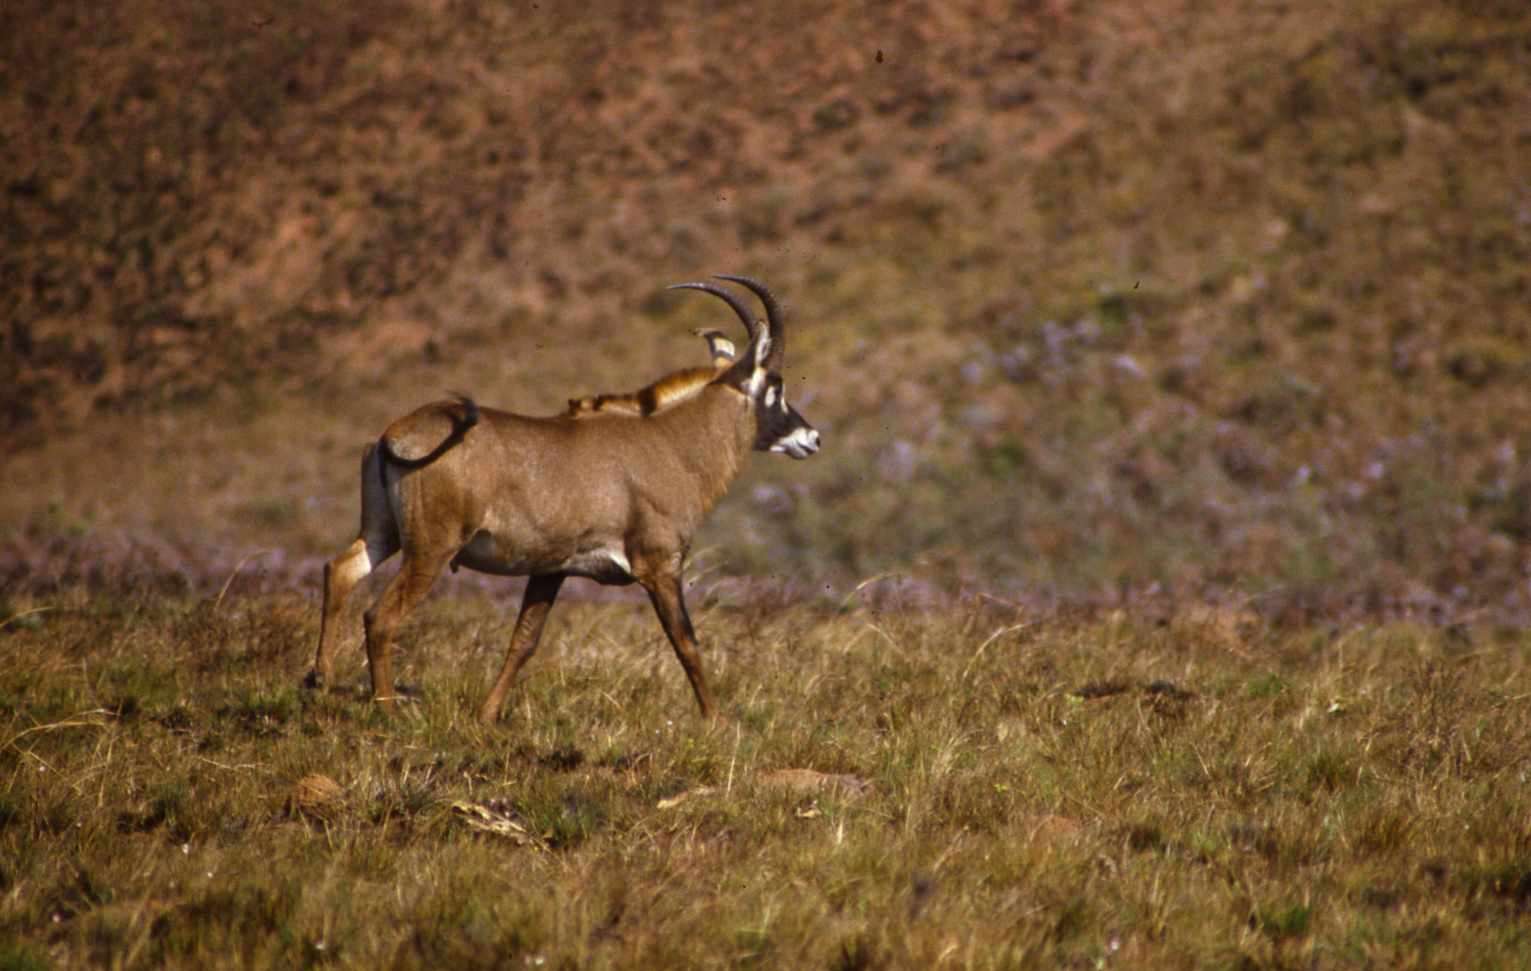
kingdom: Animalia
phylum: Chordata
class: Mammalia
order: Artiodactyla
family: Bovidae
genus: Hippotragus
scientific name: Hippotragus equinus
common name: Roan antelope
